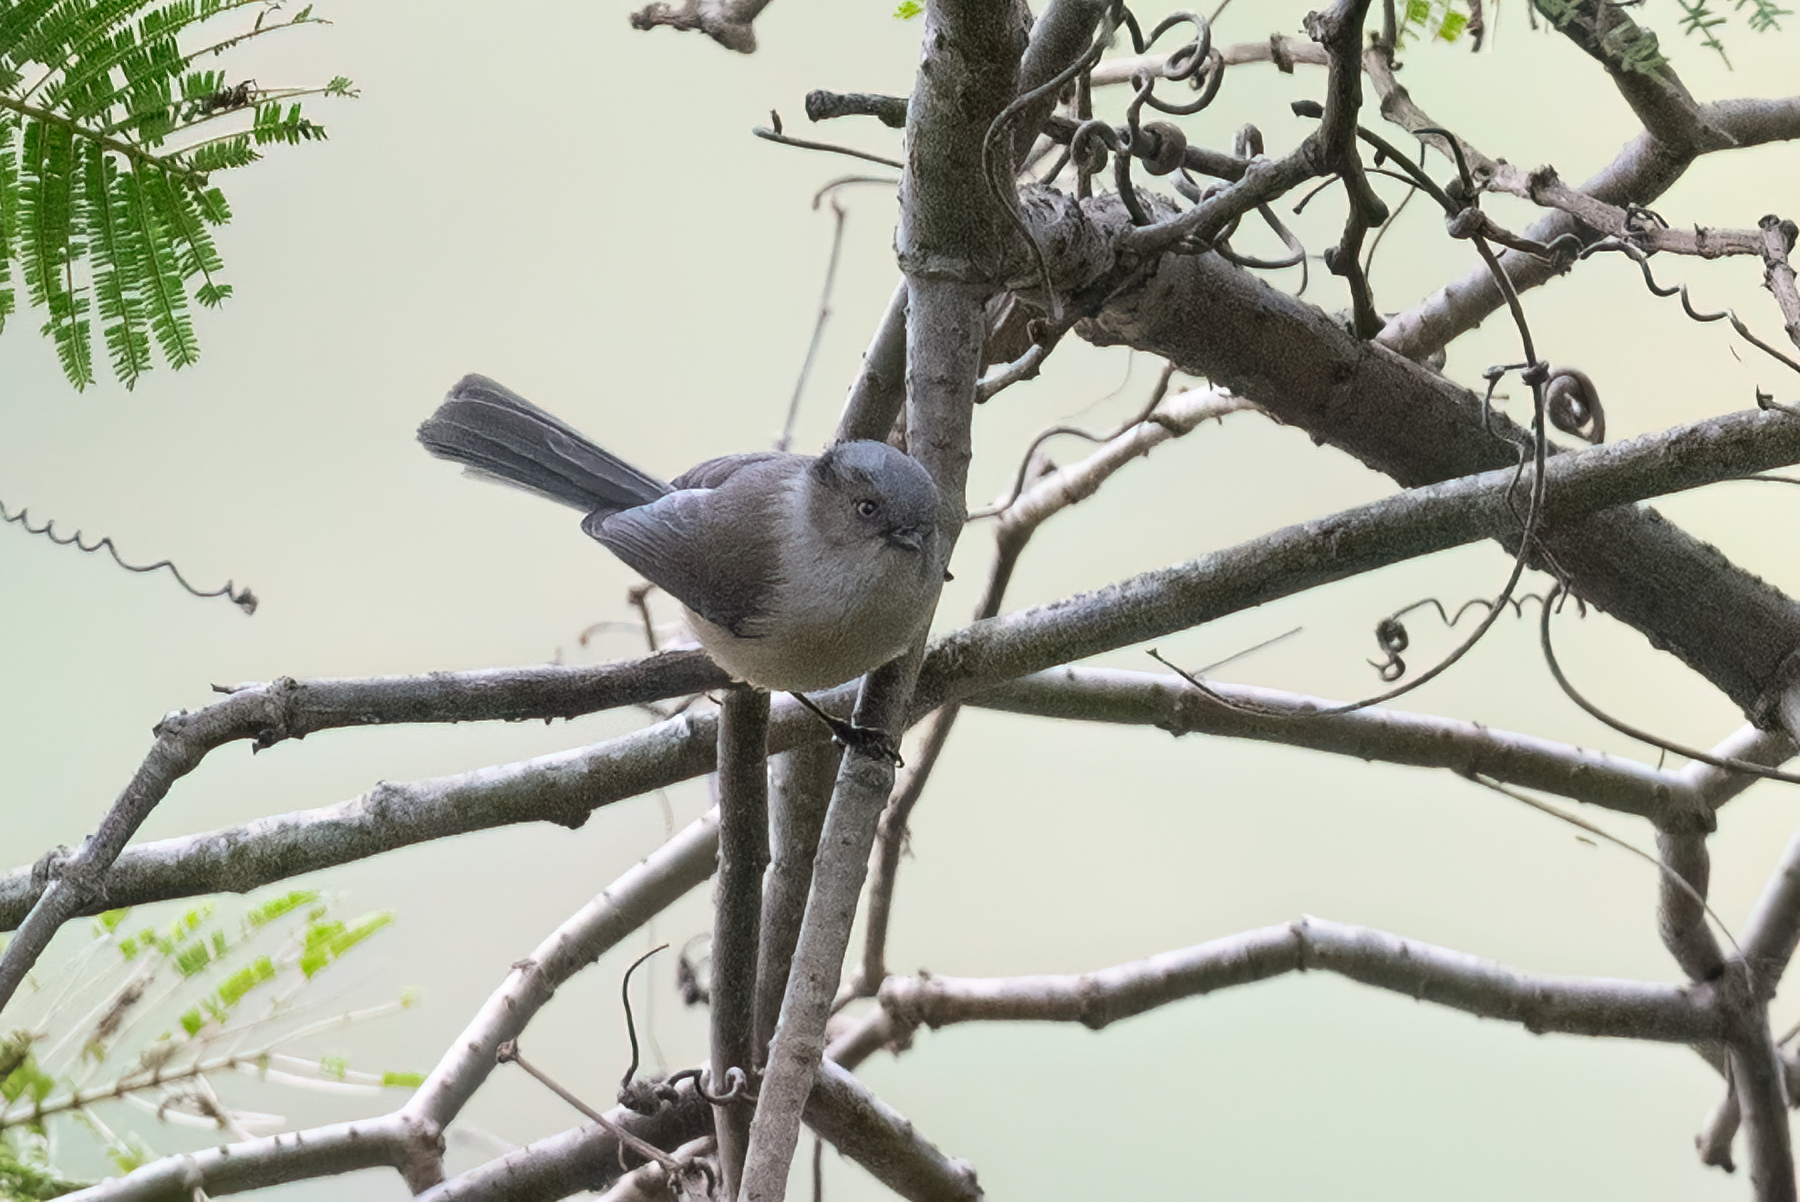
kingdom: Animalia
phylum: Chordata
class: Aves
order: Passeriformes
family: Aegithalidae
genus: Psaltriparus
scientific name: Psaltriparus minimus
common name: American bushtit
